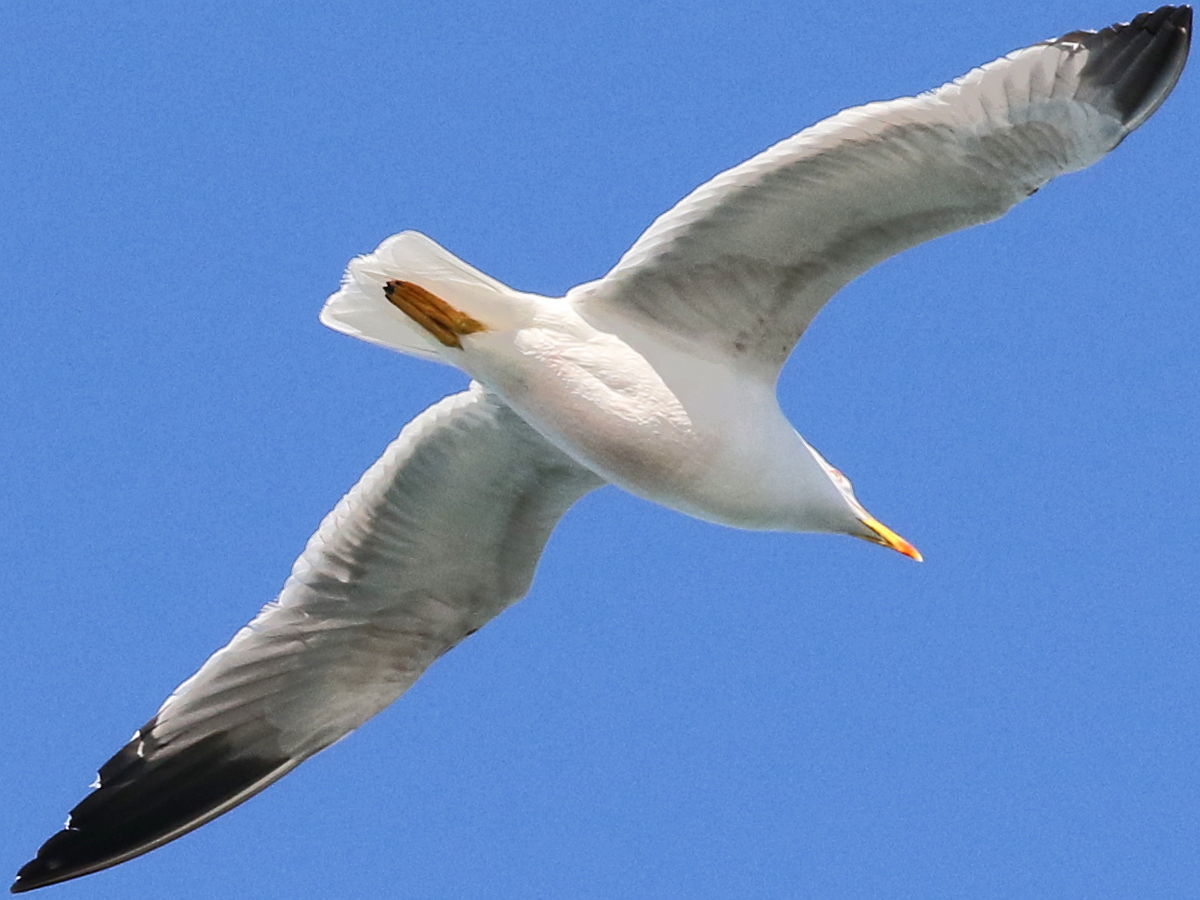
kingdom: Animalia
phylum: Chordata
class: Aves
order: Charadriiformes
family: Laridae
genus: Larus
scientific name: Larus michahellis
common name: Yellow-legged gull
